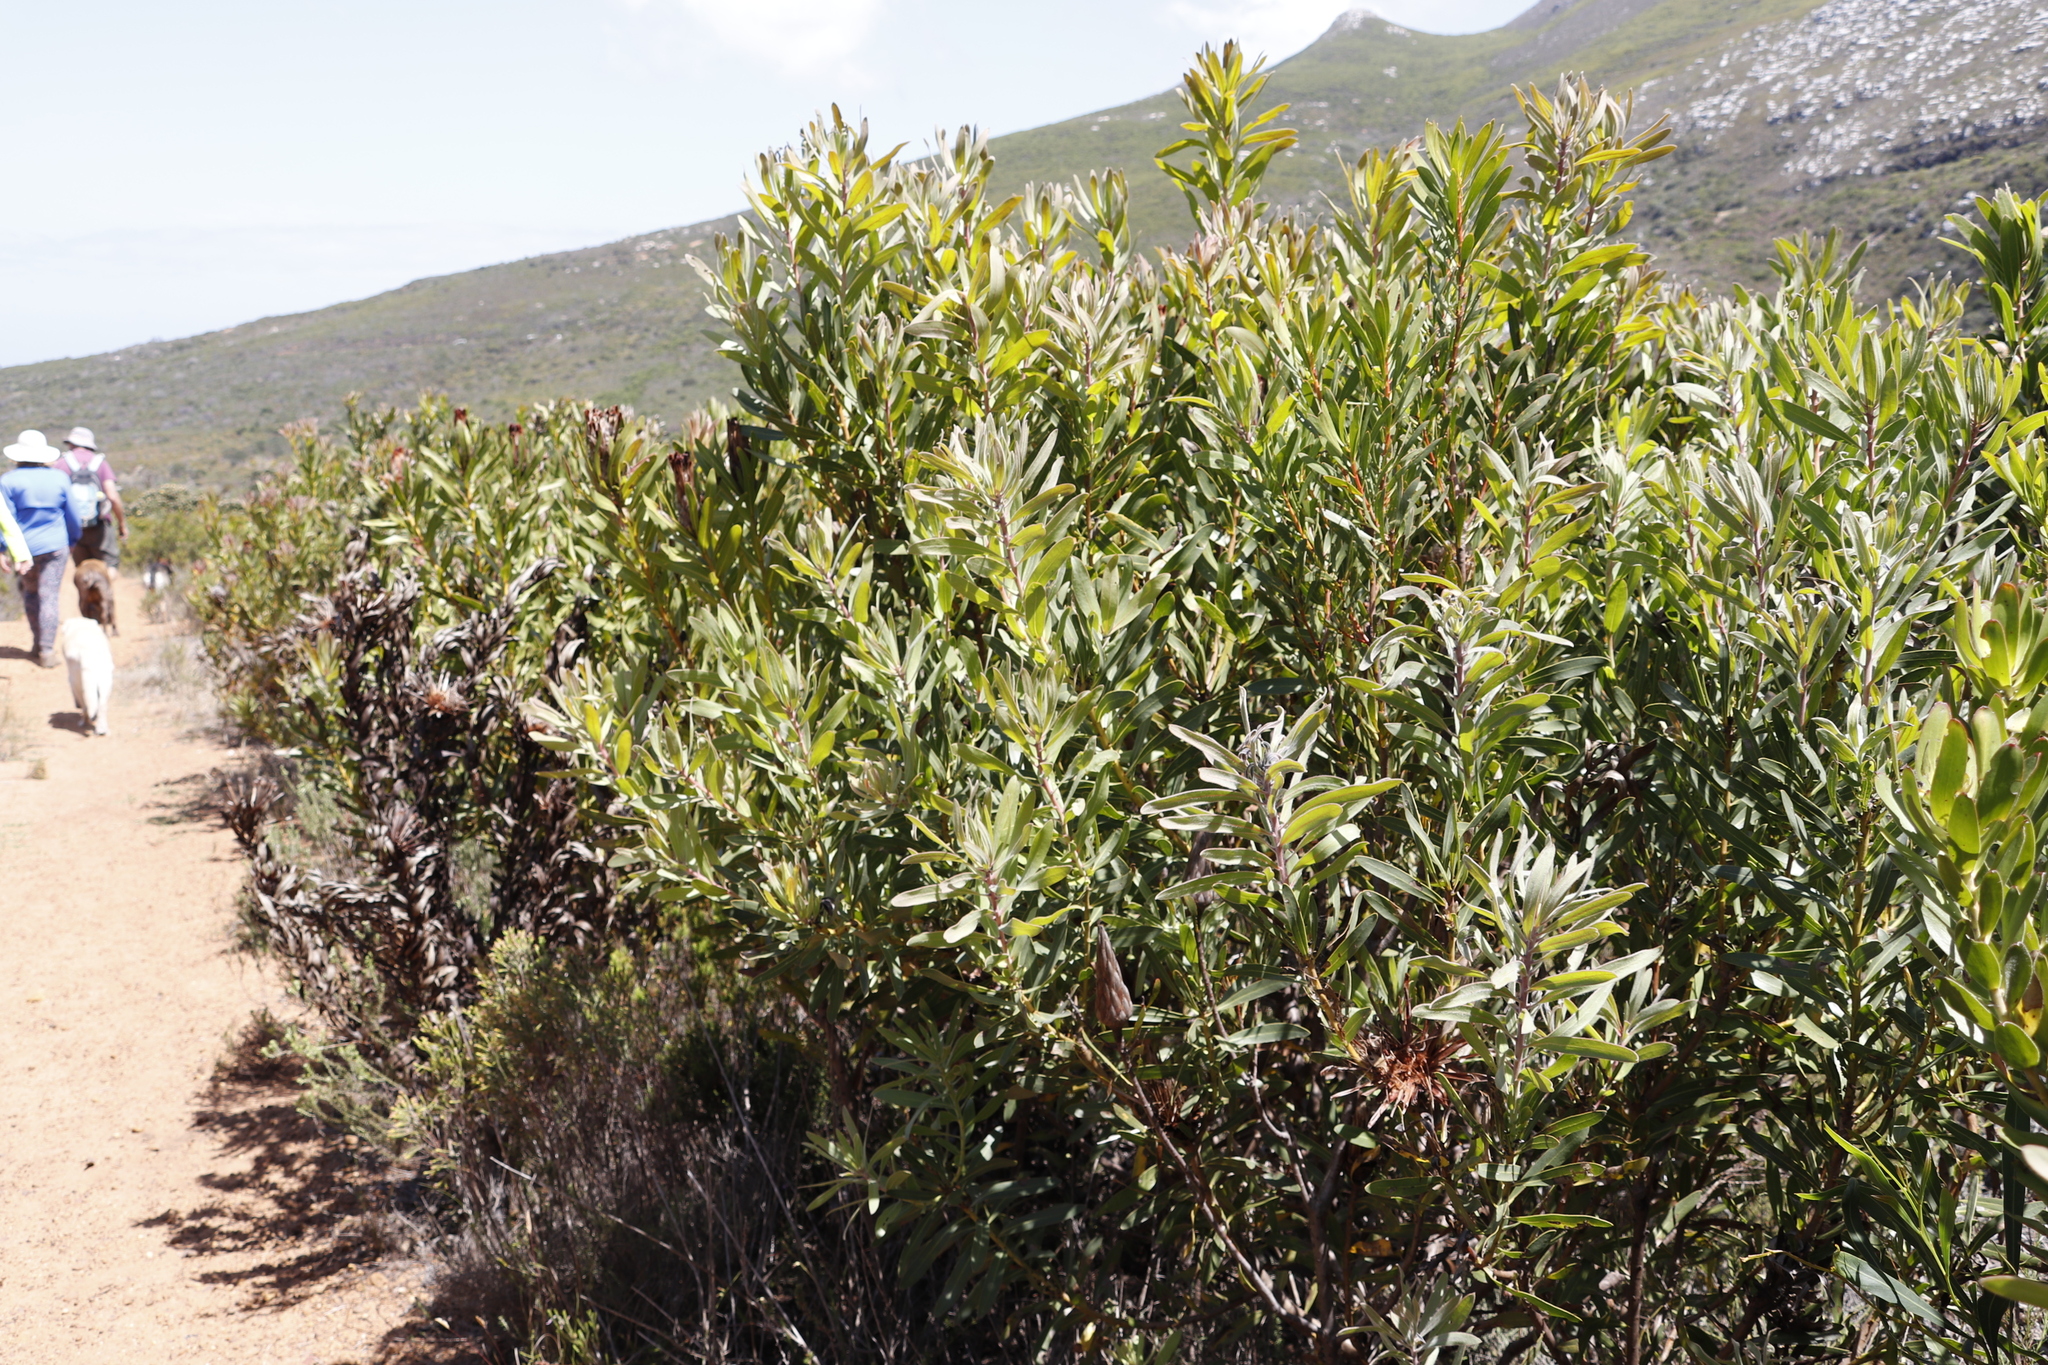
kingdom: Plantae
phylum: Tracheophyta
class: Magnoliopsida
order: Proteales
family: Proteaceae
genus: Protea
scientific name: Protea lepidocarpodendron
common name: Black-bearded protea
